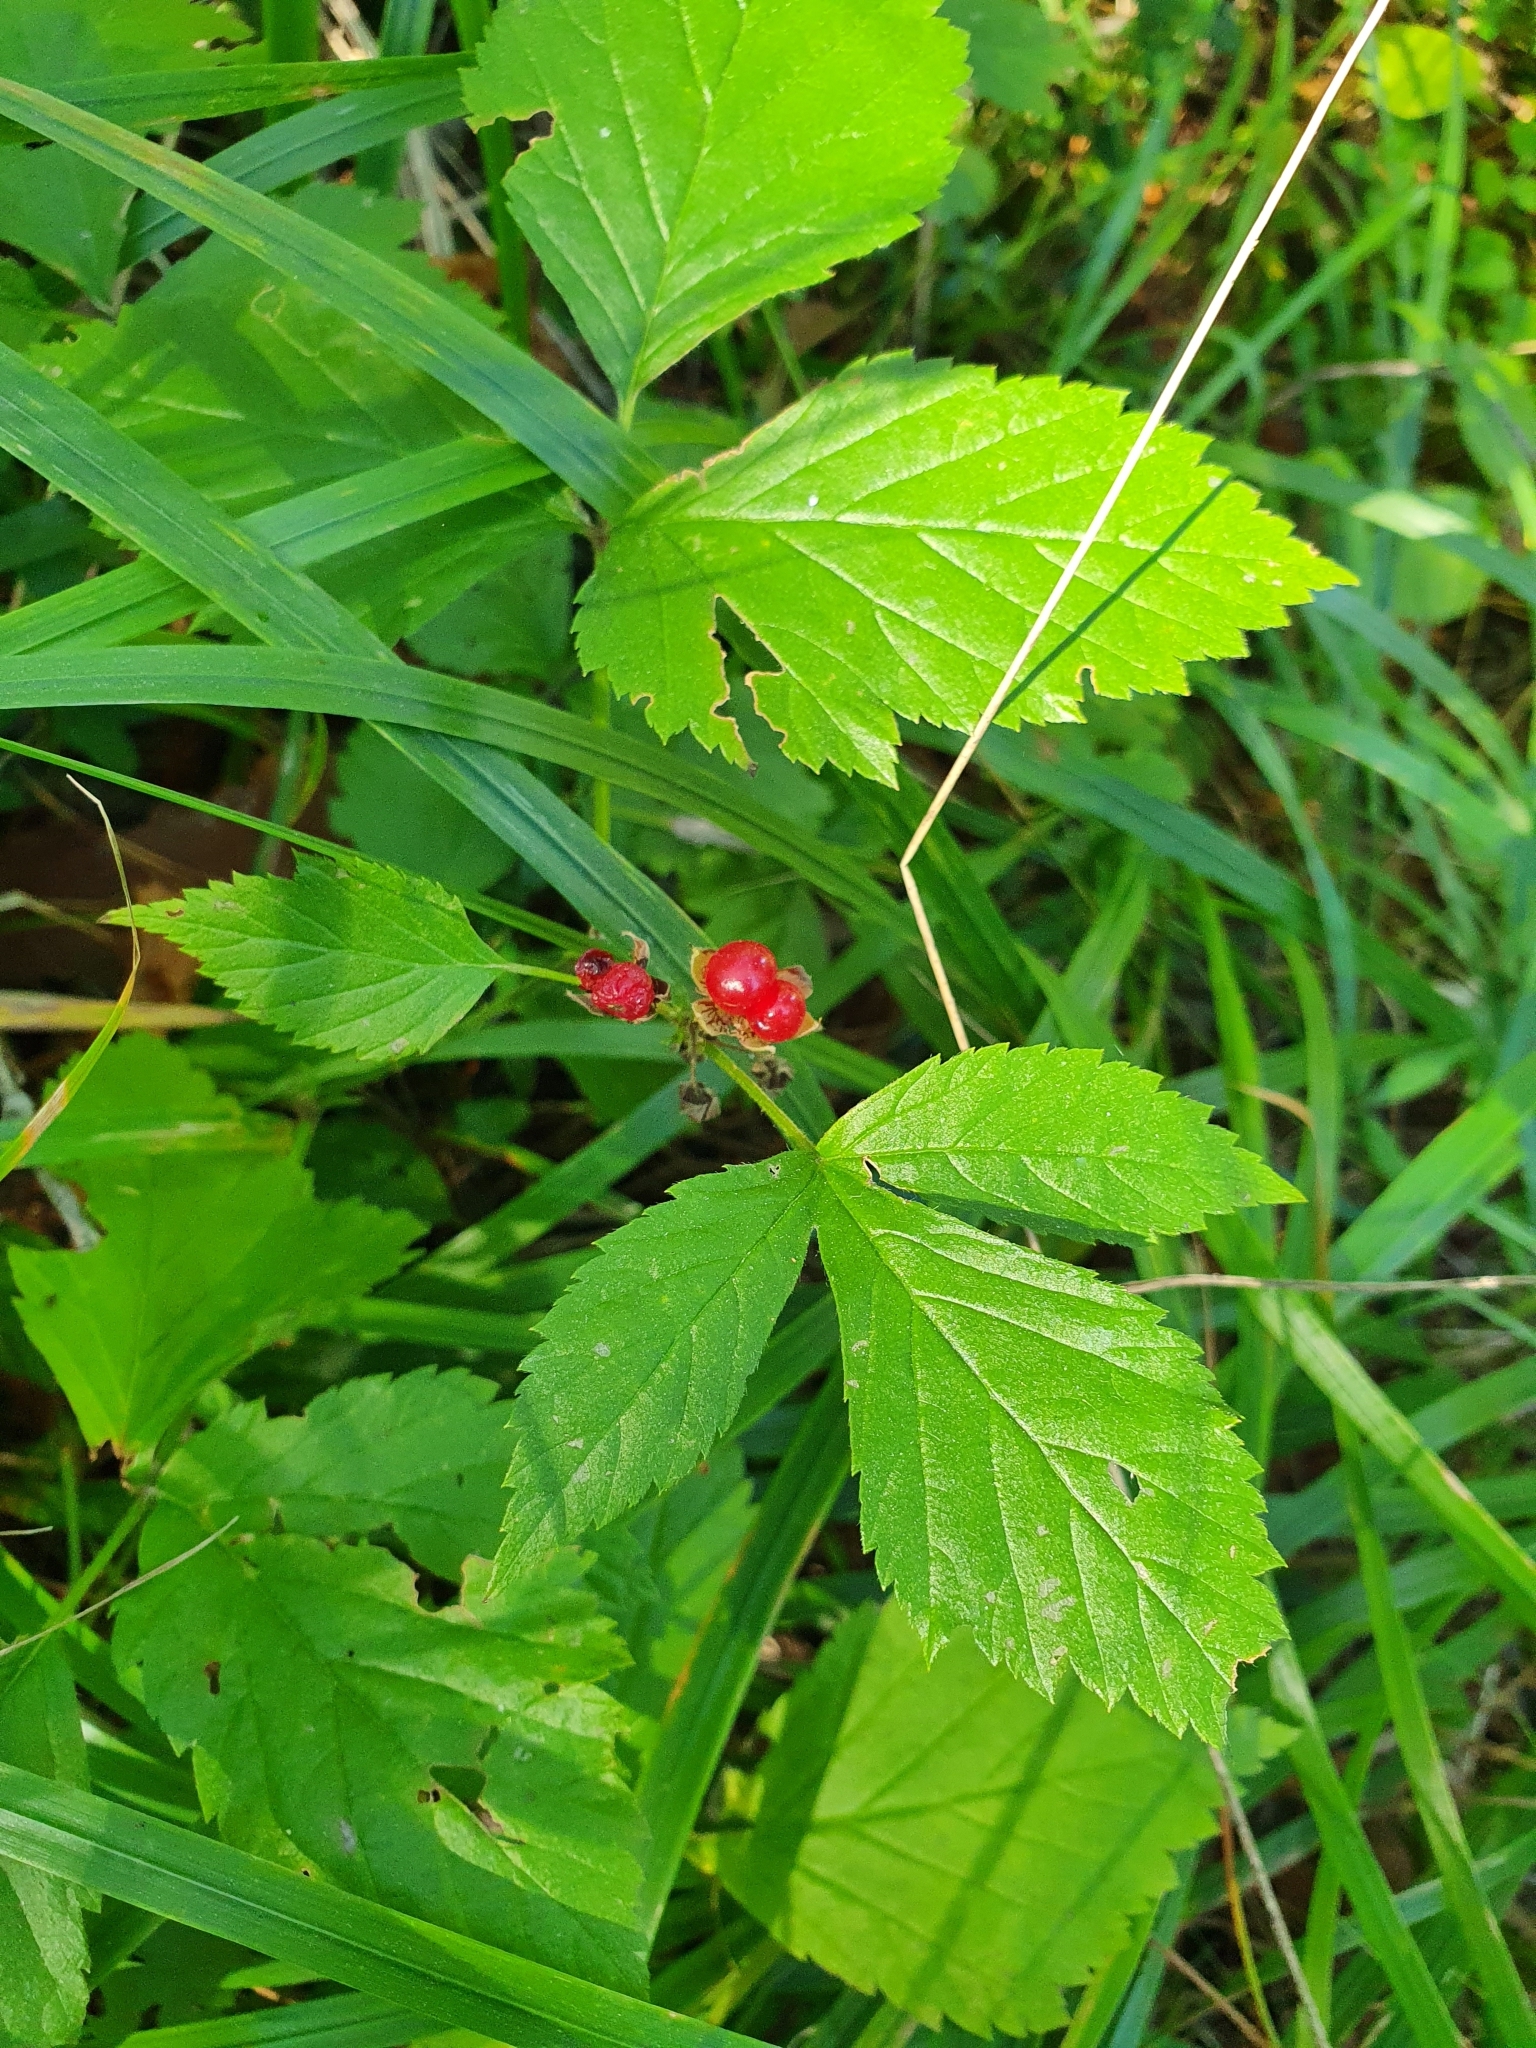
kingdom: Plantae
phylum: Tracheophyta
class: Magnoliopsida
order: Rosales
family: Rosaceae
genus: Rubus
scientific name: Rubus saxatilis
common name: Stone bramble
